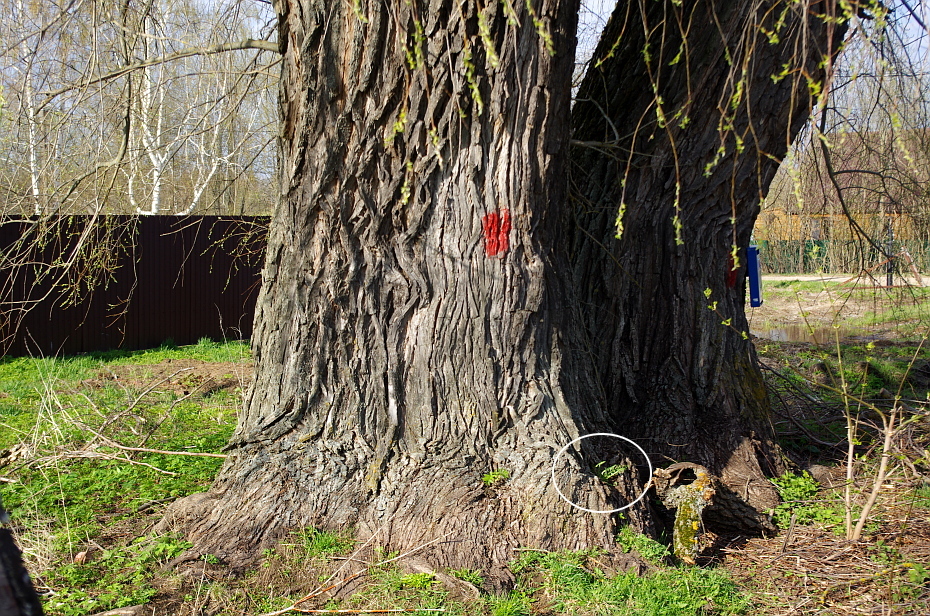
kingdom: Plantae
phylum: Tracheophyta
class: Magnoliopsida
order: Asterales
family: Asteraceae
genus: Taraxacum
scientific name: Taraxacum officinale
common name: Common dandelion
